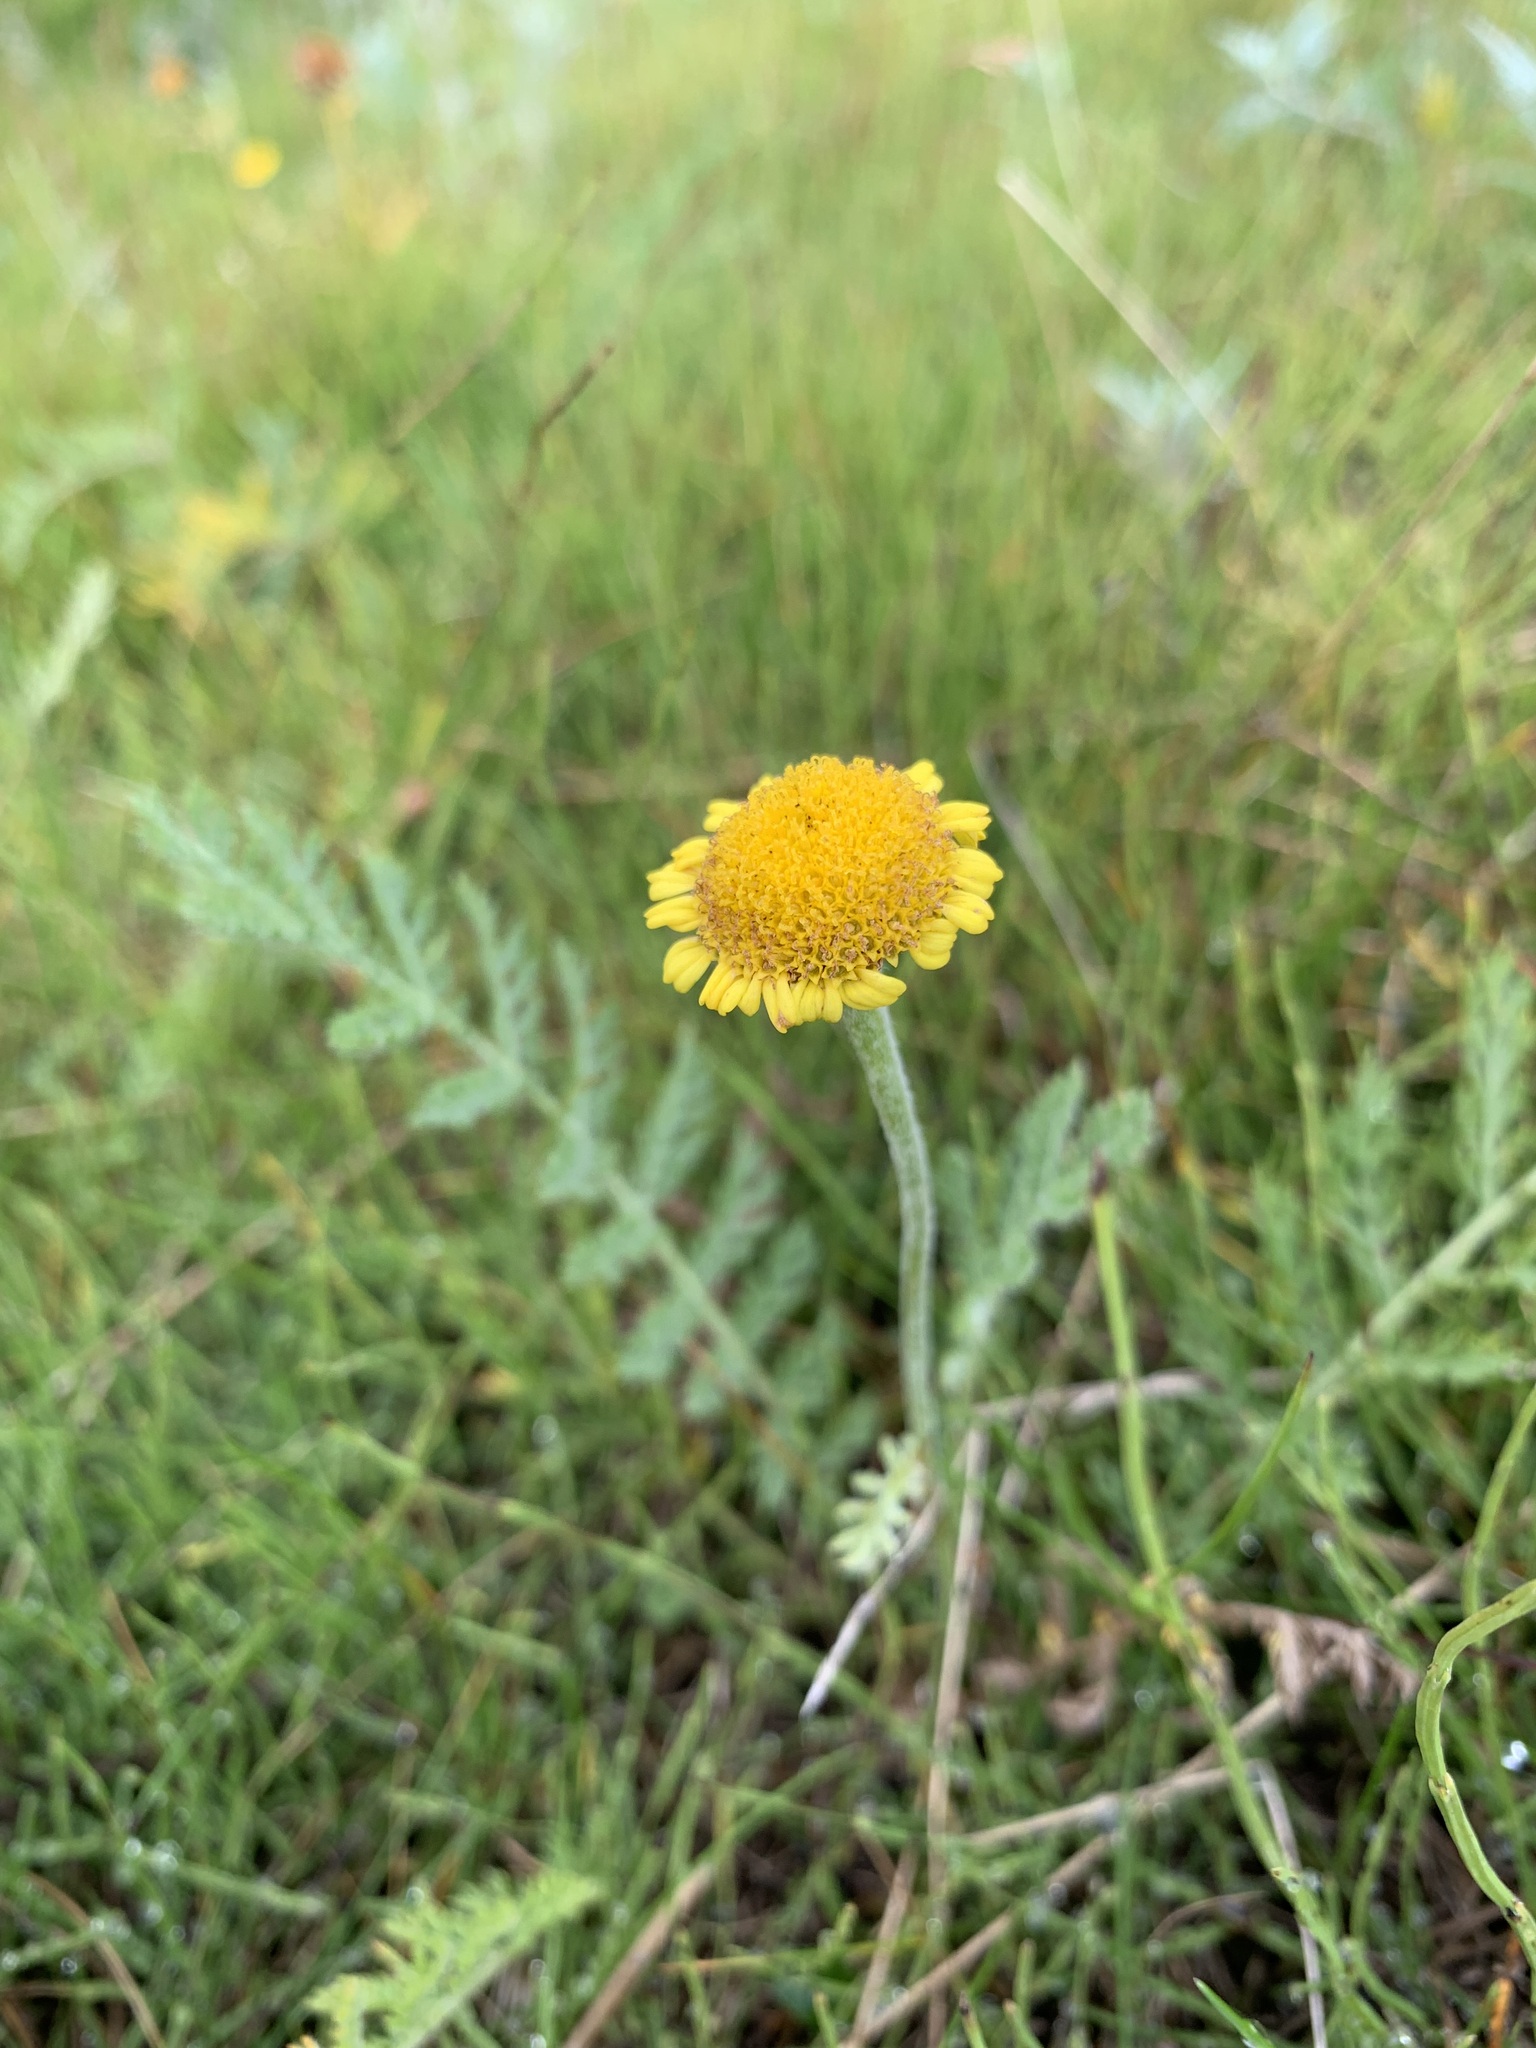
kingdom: Plantae
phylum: Tracheophyta
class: Magnoliopsida
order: Asterales
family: Asteraceae
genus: Tanacetum
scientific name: Tanacetum bipinnatum
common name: Dwarf tansy
